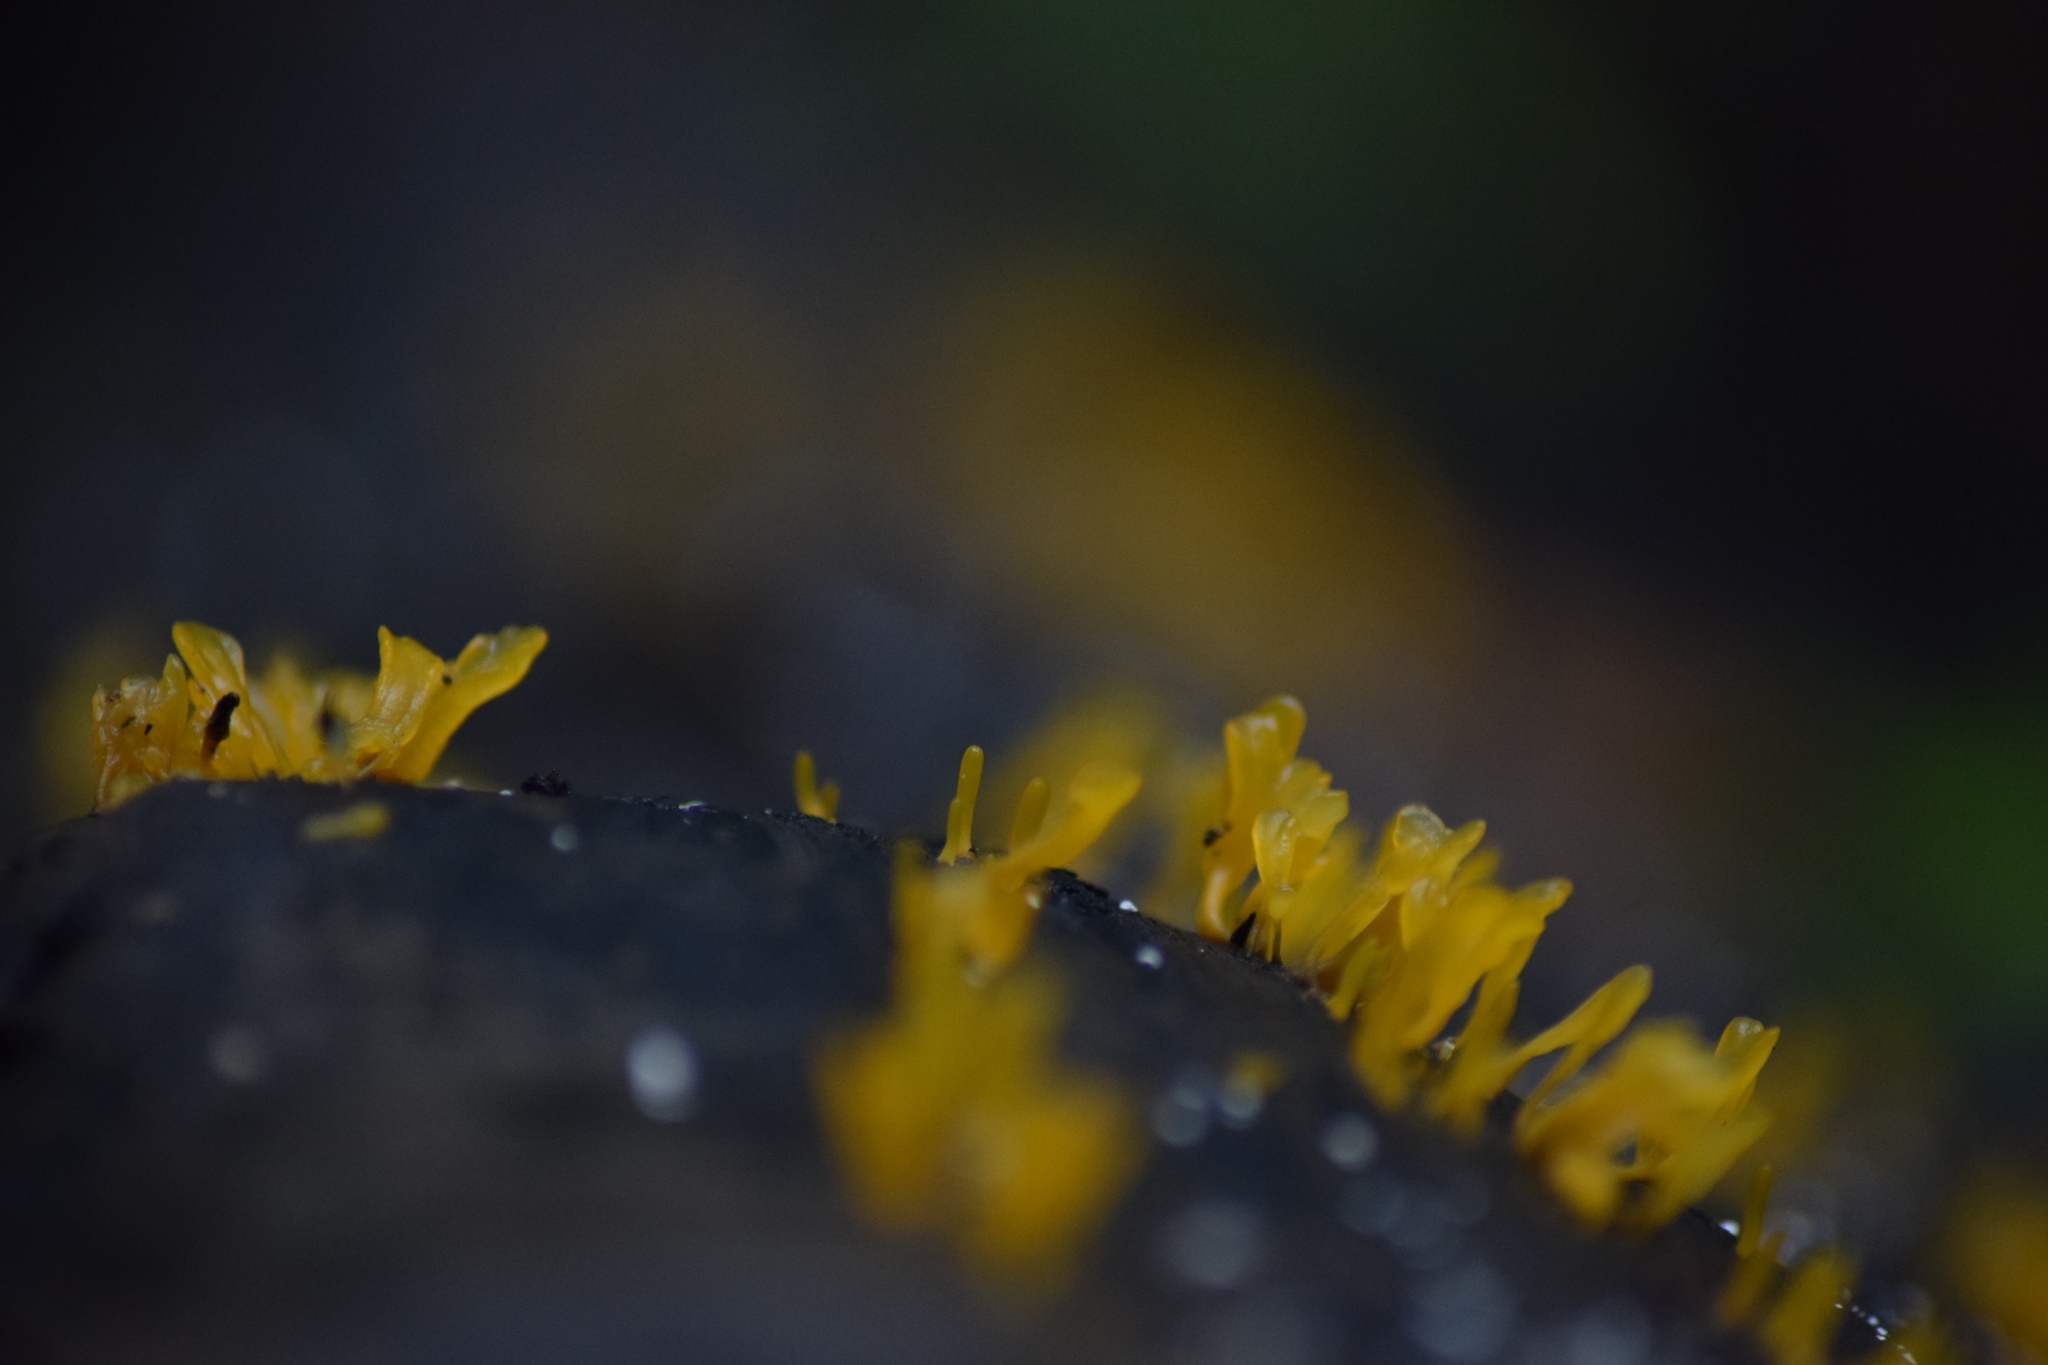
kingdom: Fungi
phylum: Basidiomycota
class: Dacrymycetes
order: Dacrymycetales
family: Dacrymycetaceae
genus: Dacrymyces
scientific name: Dacrymyces spathularius
